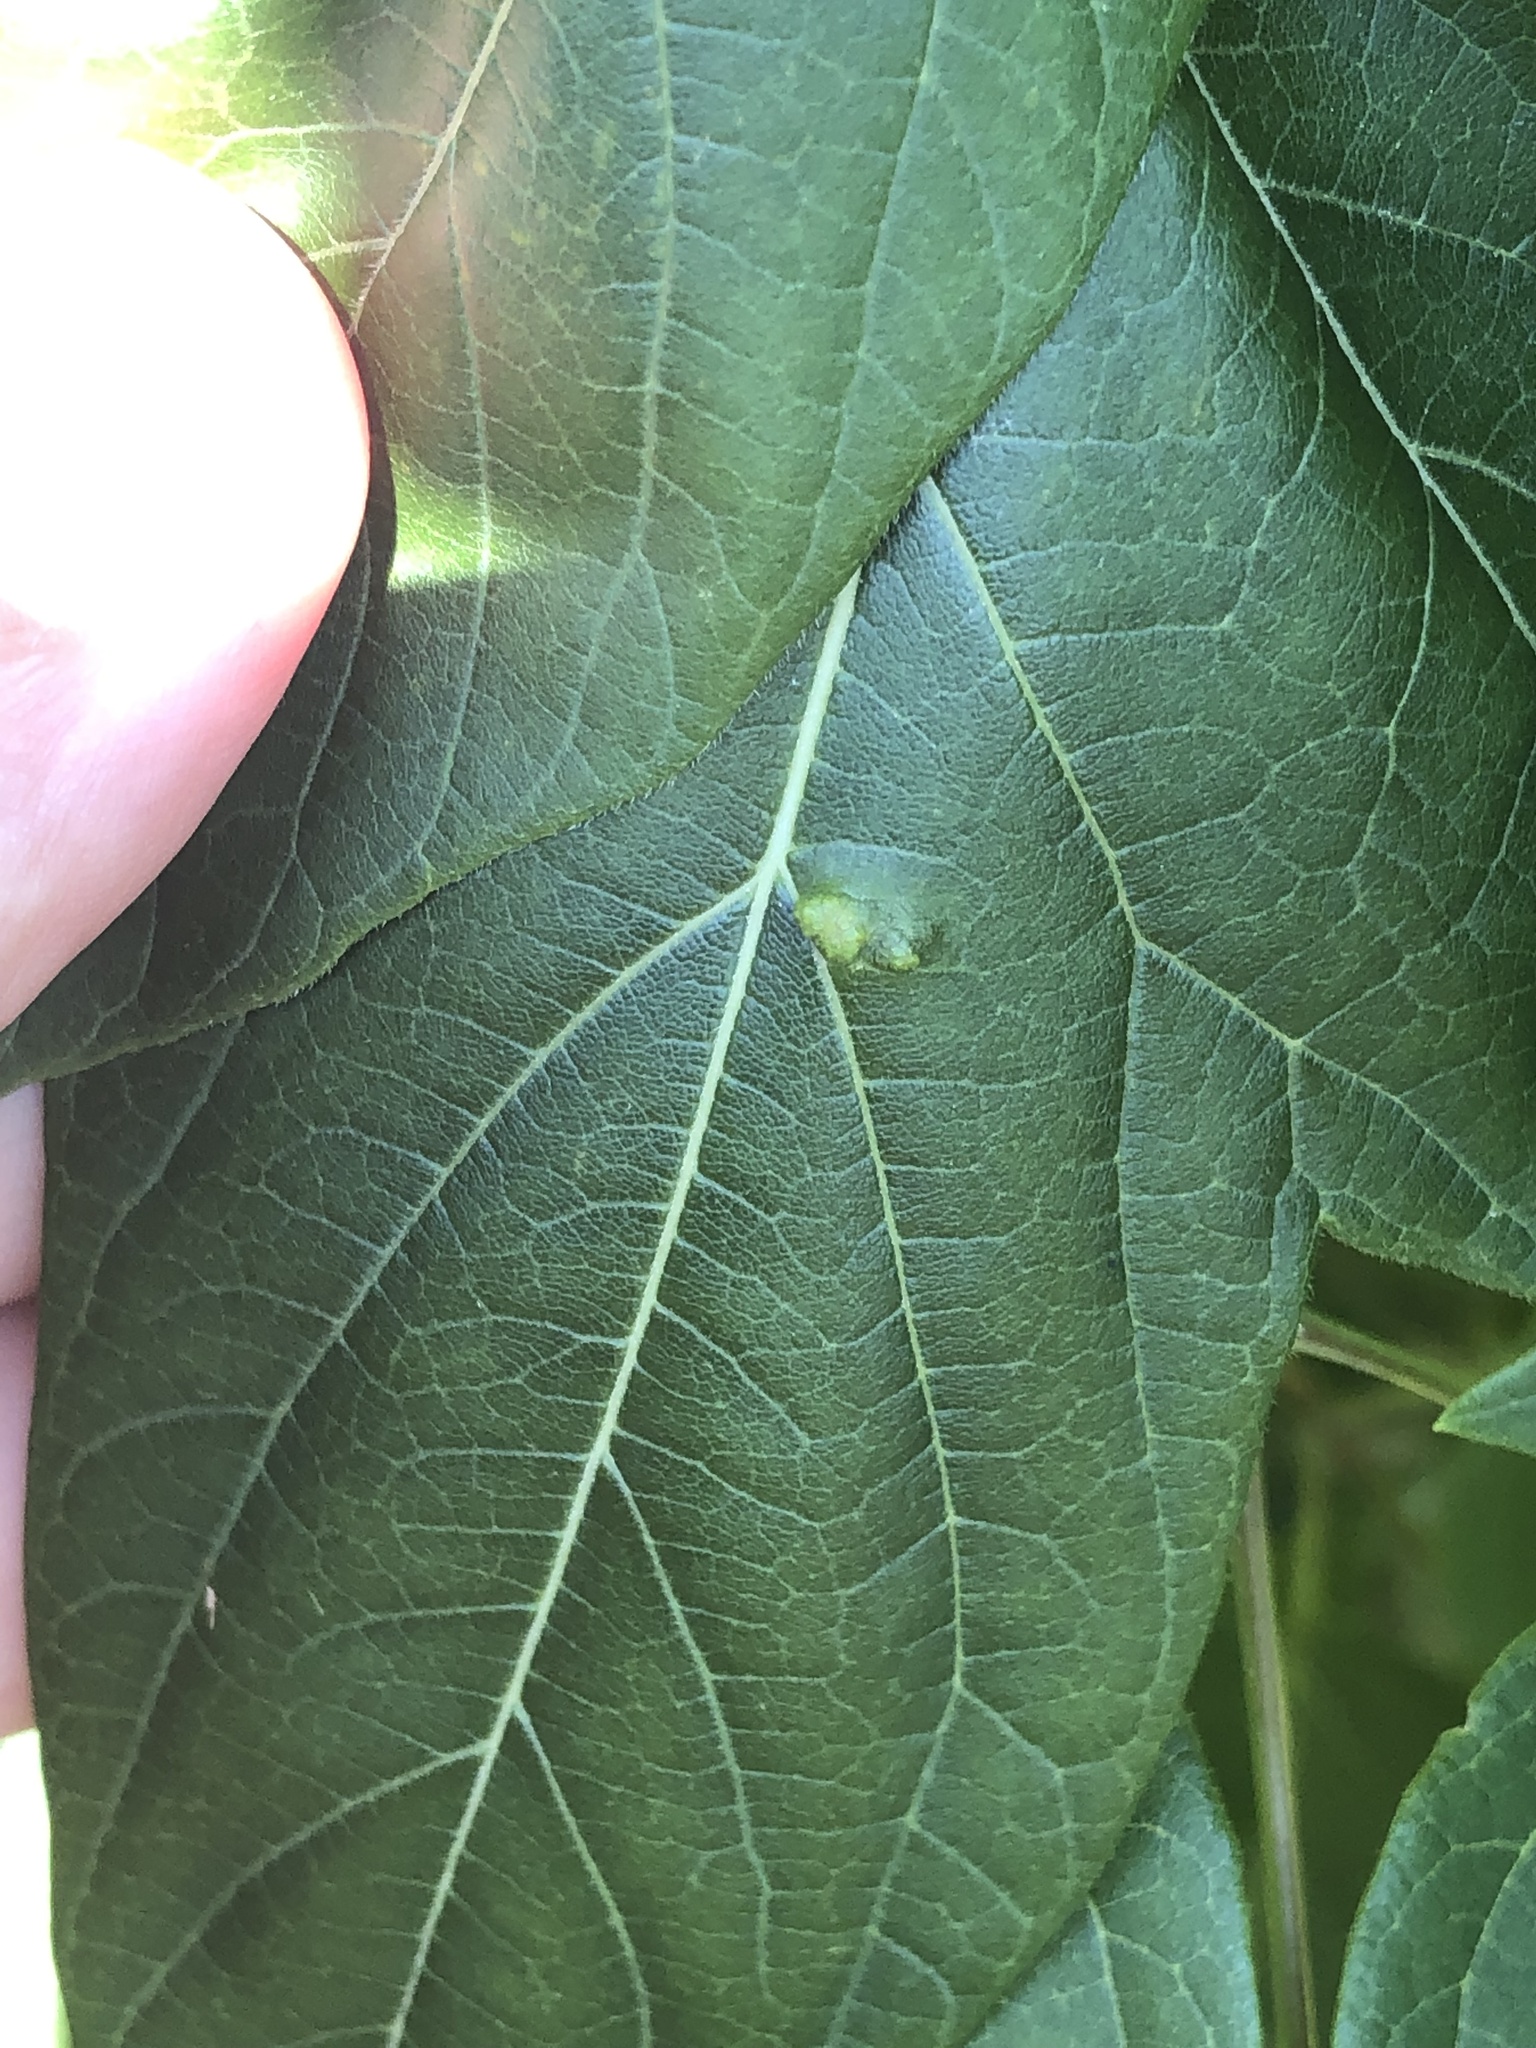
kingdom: Animalia
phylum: Arthropoda
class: Arachnida
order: Trombidiformes
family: Eriophyidae
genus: Aceria
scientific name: Aceria
